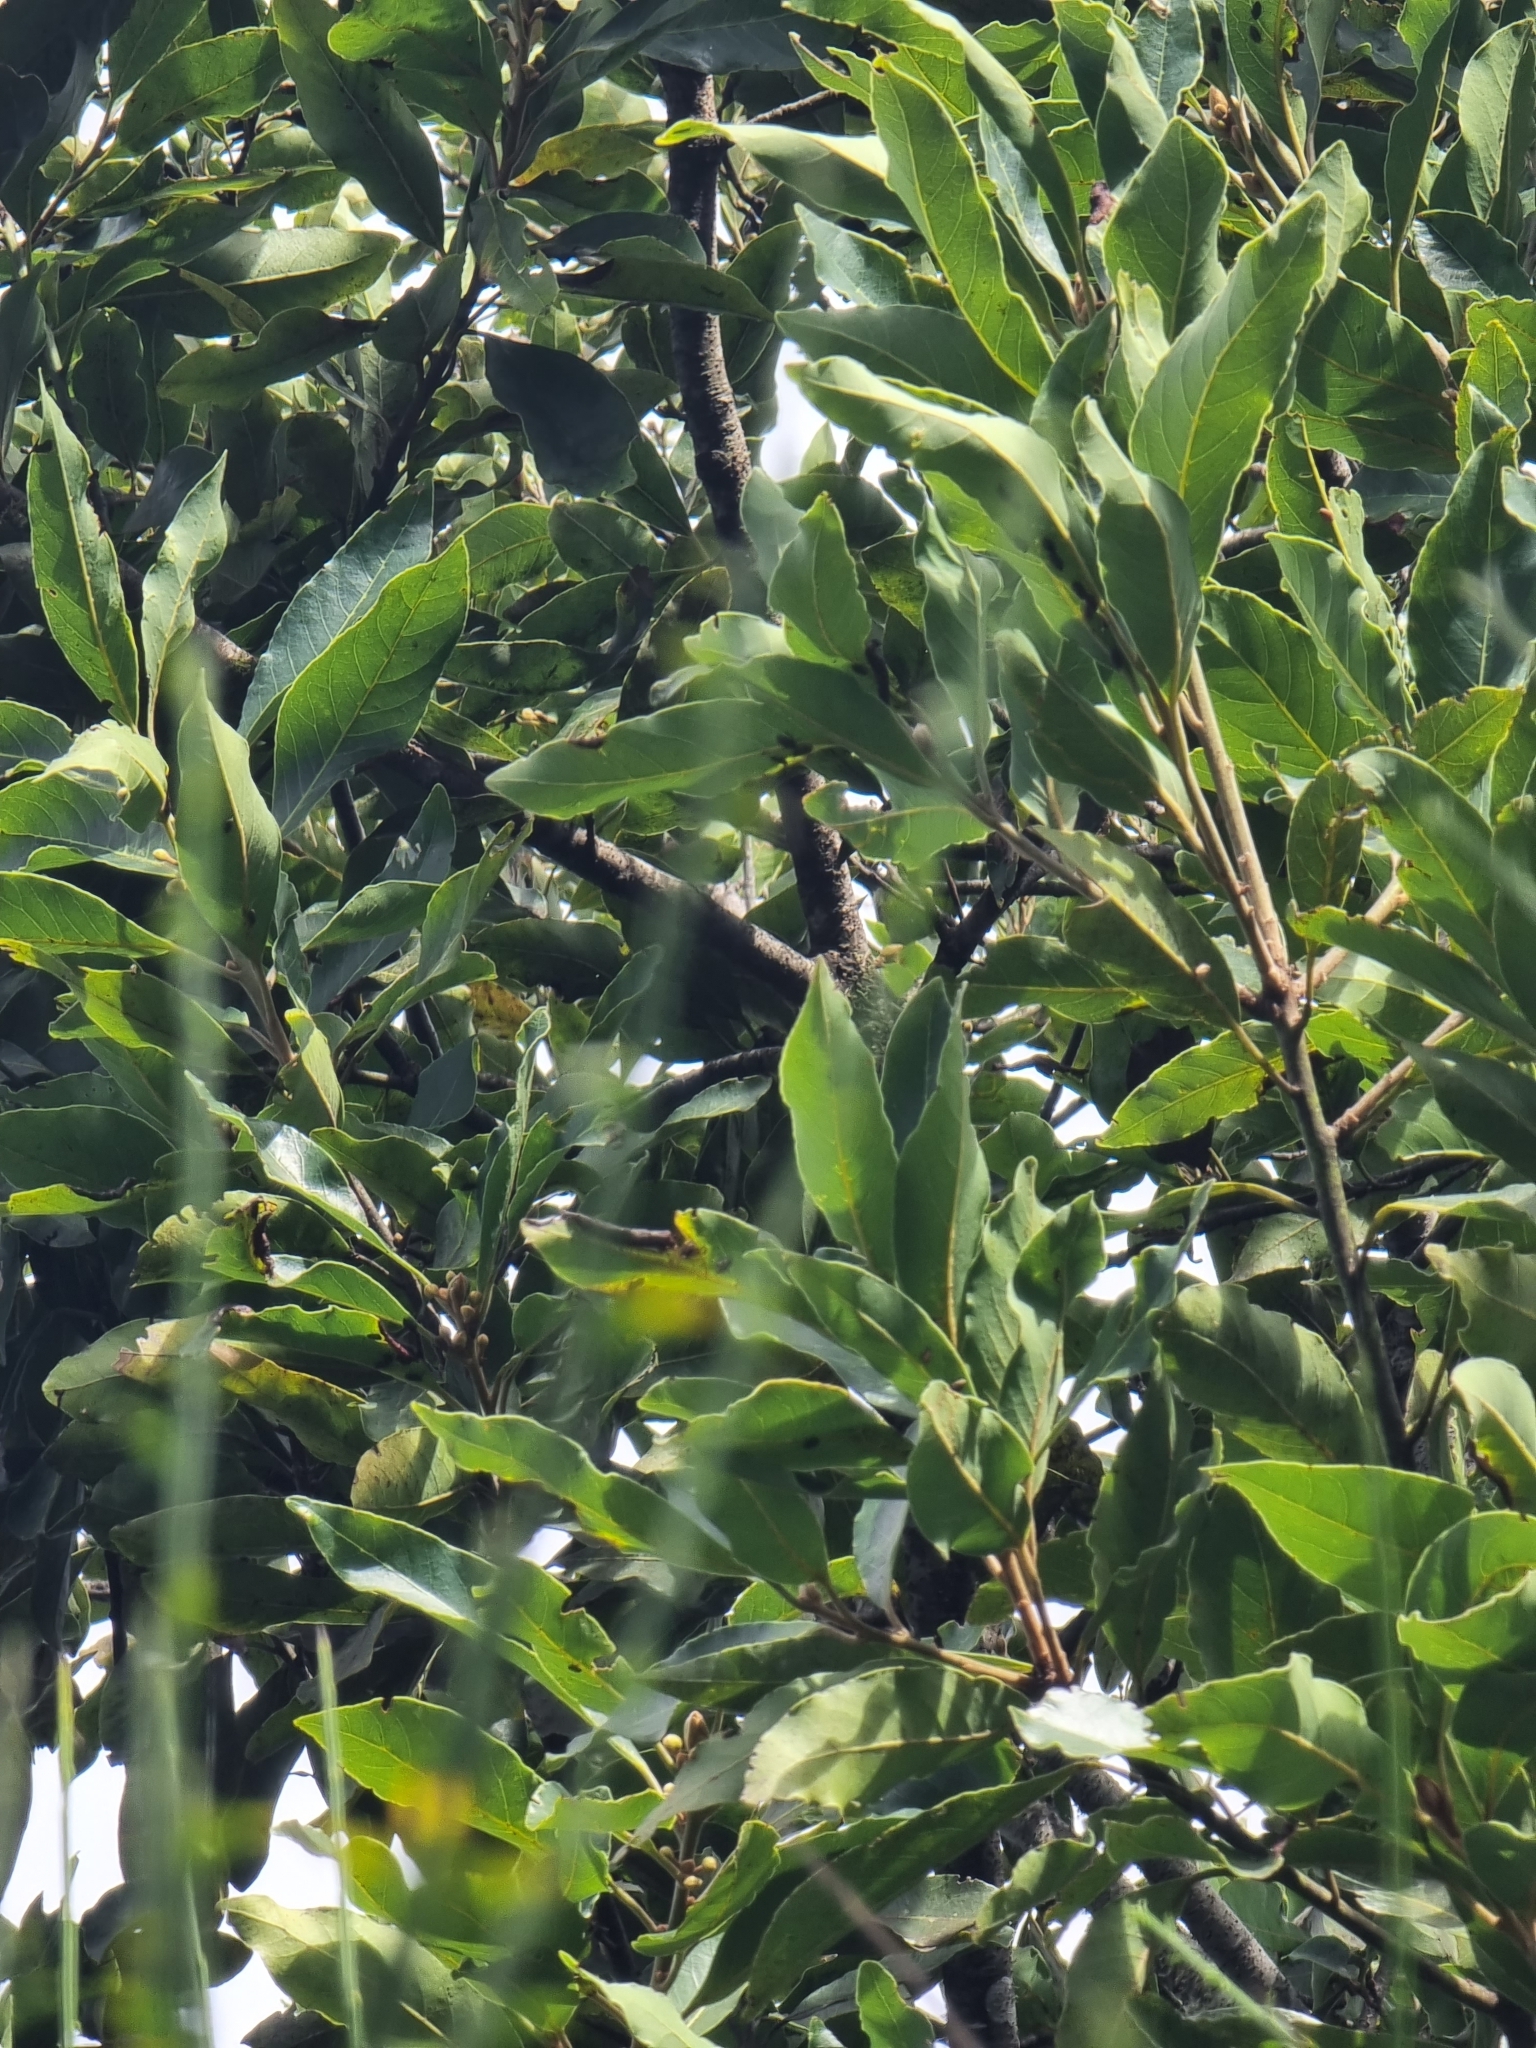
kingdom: Plantae
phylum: Tracheophyta
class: Magnoliopsida
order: Laurales
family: Lauraceae
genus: Laurus
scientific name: Laurus novocanariensis
